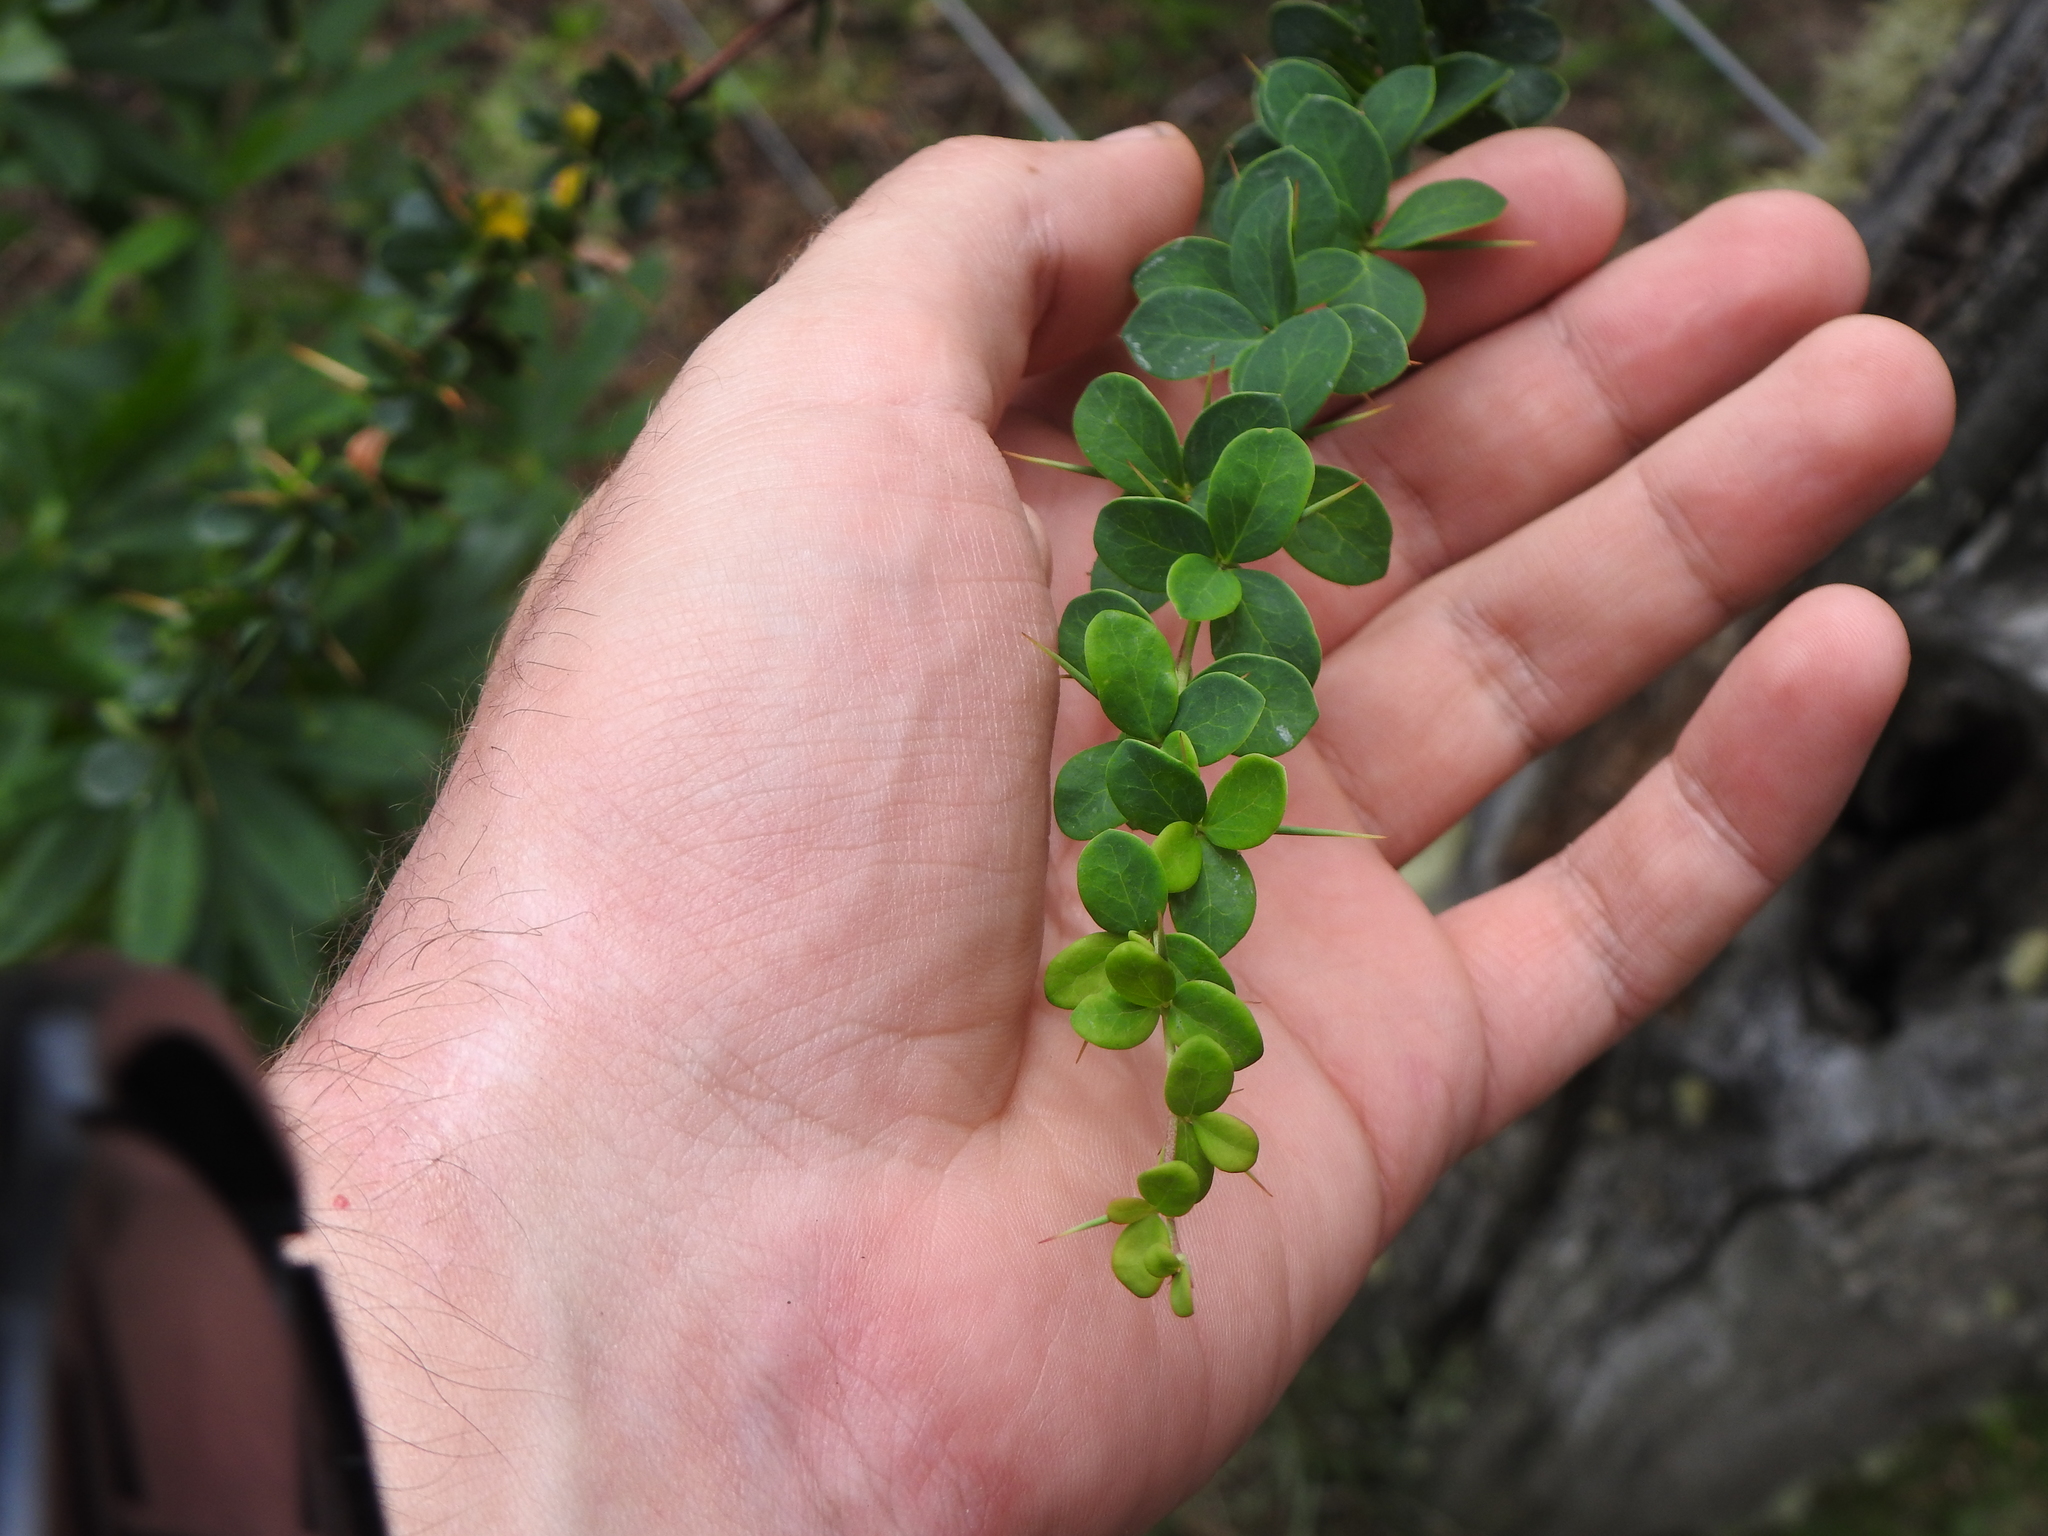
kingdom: Plantae
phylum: Tracheophyta
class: Magnoliopsida
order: Ranunculales
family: Berberidaceae
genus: Berberis
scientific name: Berberis microphylla
